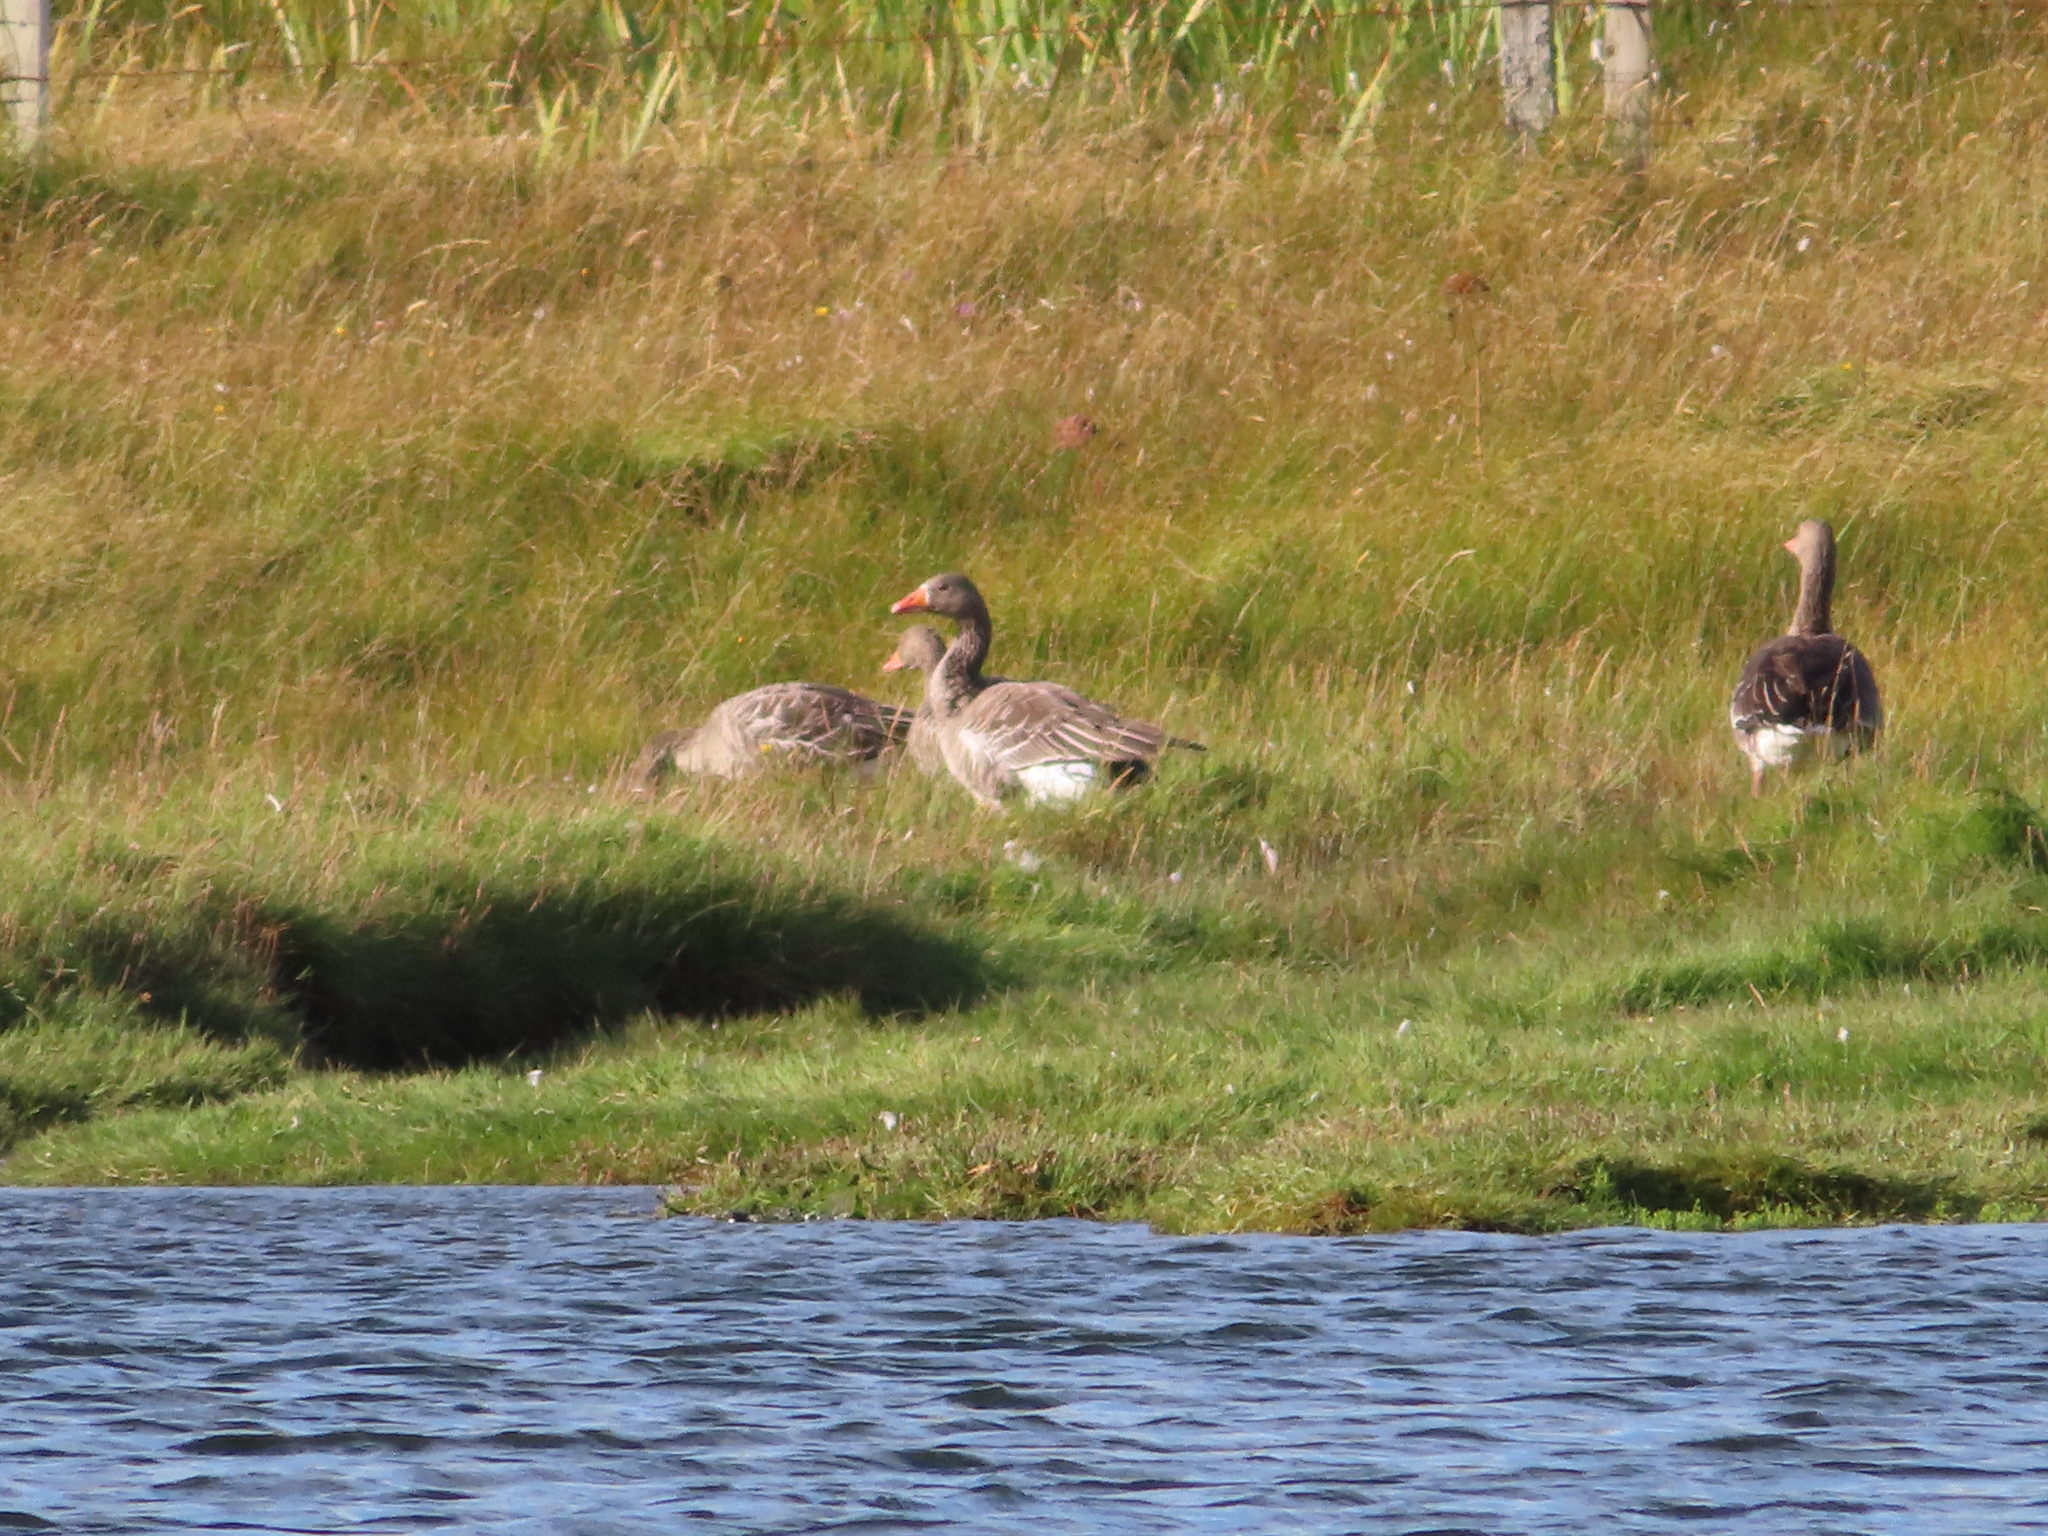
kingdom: Animalia
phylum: Chordata
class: Aves
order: Anseriformes
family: Anatidae
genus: Anser
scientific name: Anser anser
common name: Greylag goose
